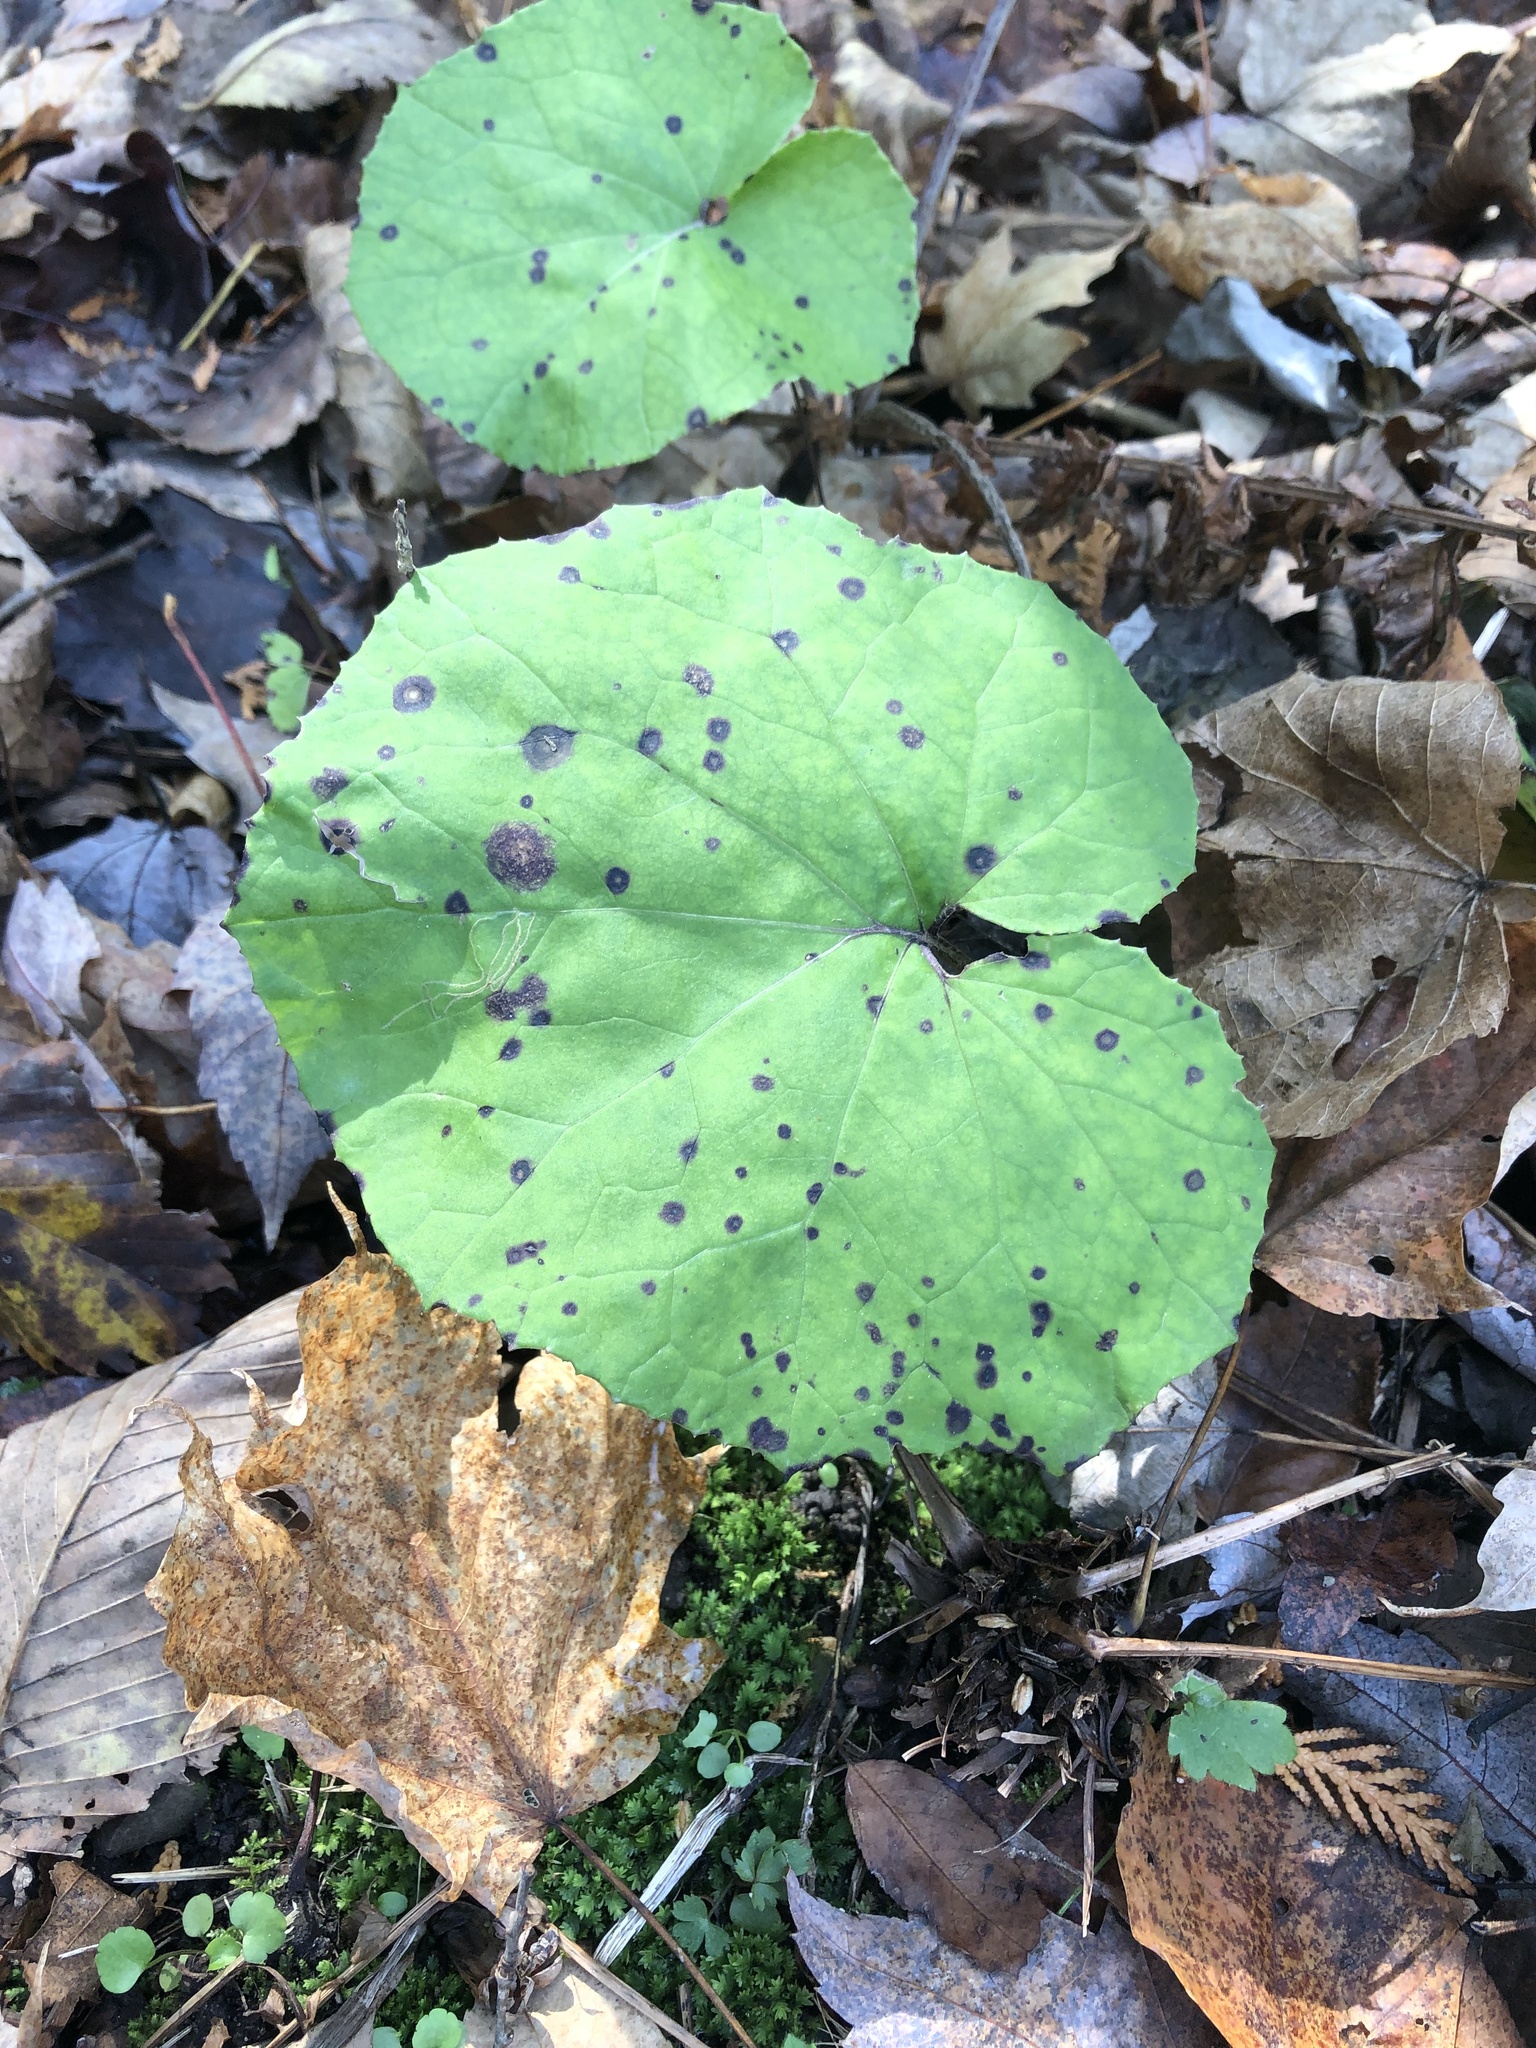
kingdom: Plantae
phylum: Tracheophyta
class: Magnoliopsida
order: Asterales
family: Asteraceae
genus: Tussilago
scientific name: Tussilago farfara
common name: Coltsfoot
